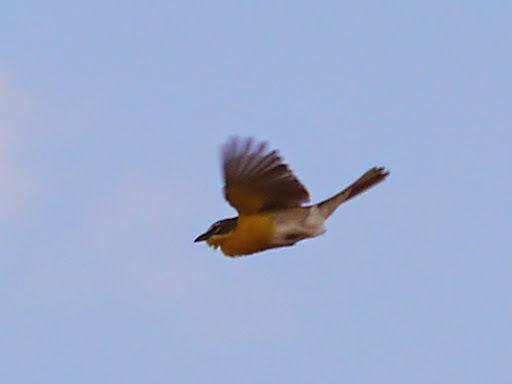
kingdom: Animalia
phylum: Chordata
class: Aves
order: Passeriformes
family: Parulidae
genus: Icteria
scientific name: Icteria virens
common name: Yellow-breasted chat
